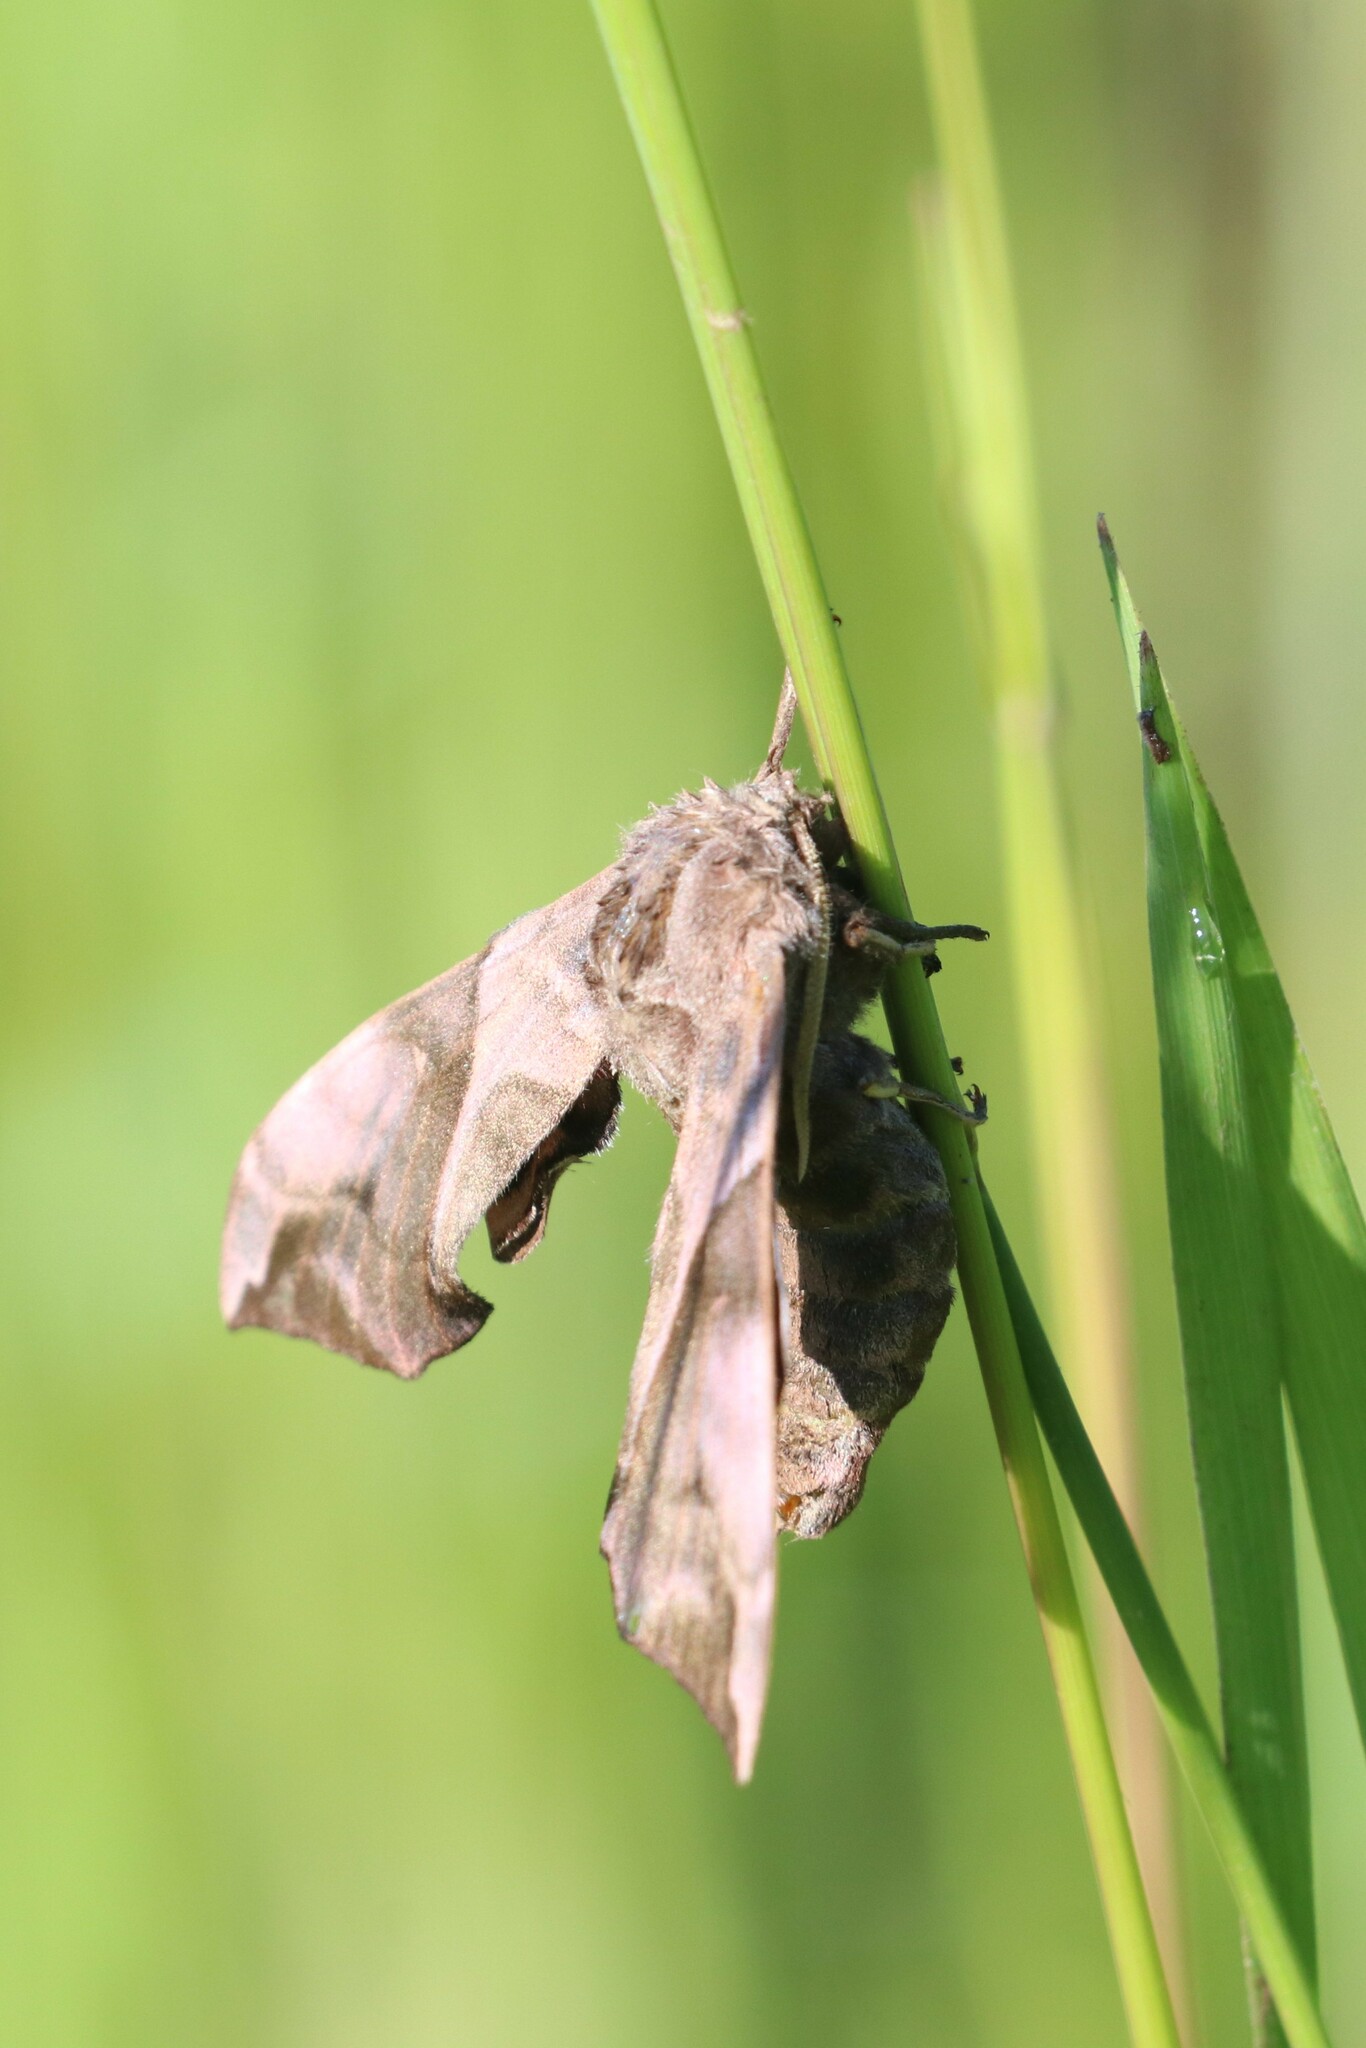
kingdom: Animalia
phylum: Arthropoda
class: Insecta
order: Lepidoptera
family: Sphingidae
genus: Smerinthus
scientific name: Smerinthus ocellata
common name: Eyed hawk-moth
